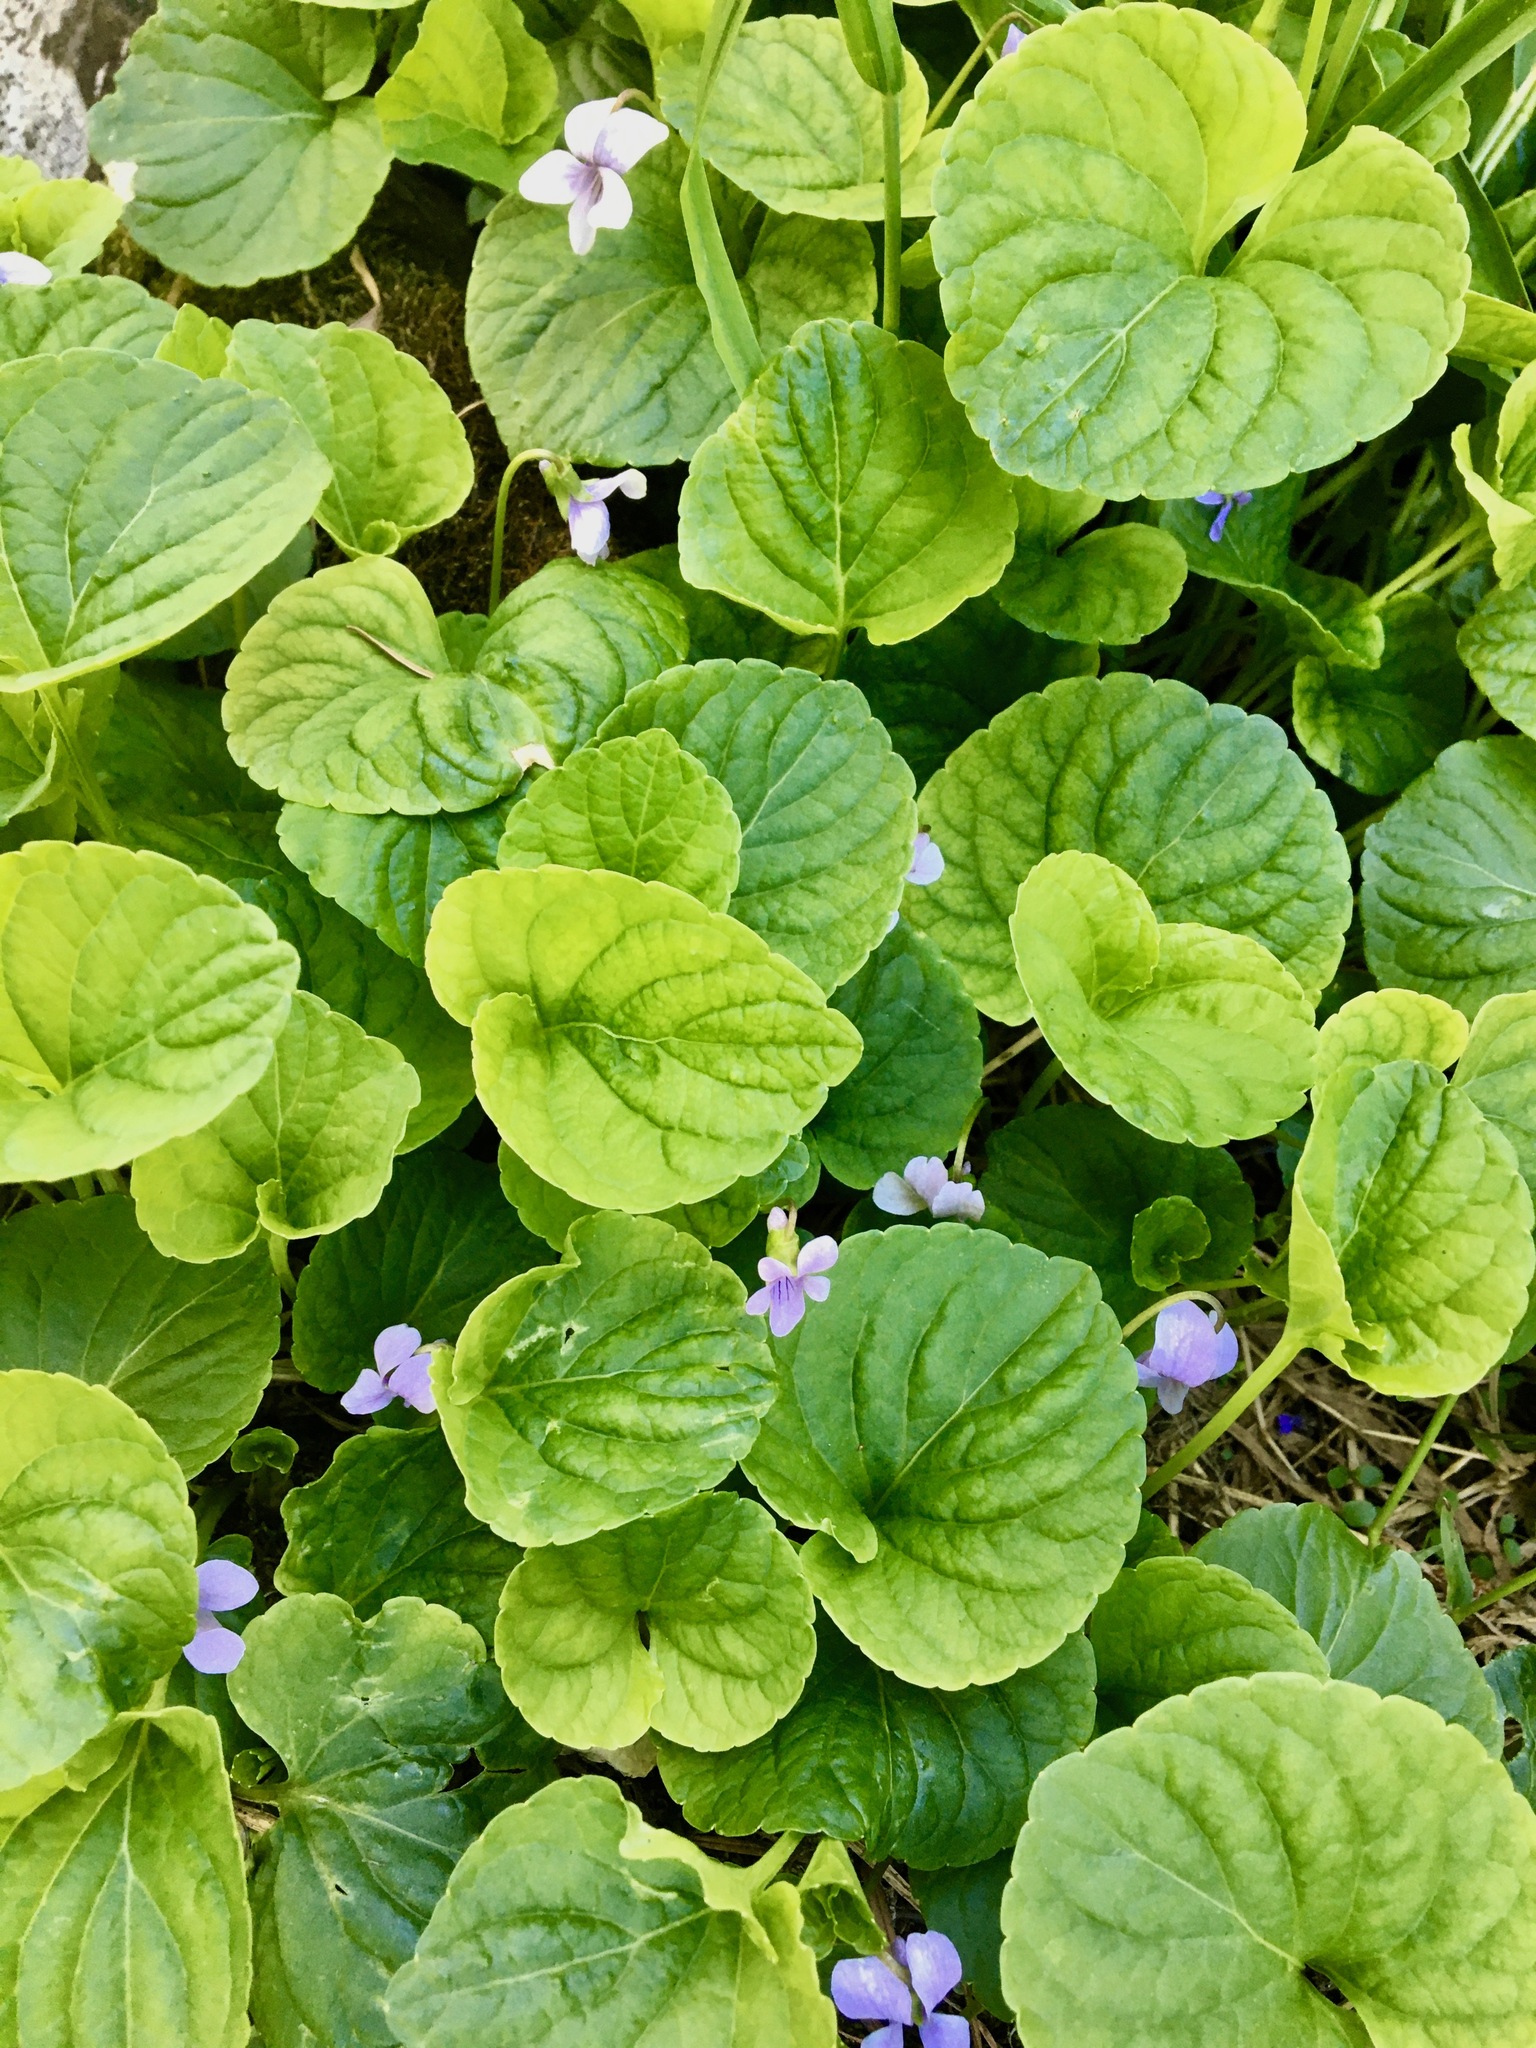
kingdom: Plantae
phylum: Tracheophyta
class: Magnoliopsida
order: Malpighiales
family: Violaceae
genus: Viola
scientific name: Viola palustris
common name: Marsh violet
